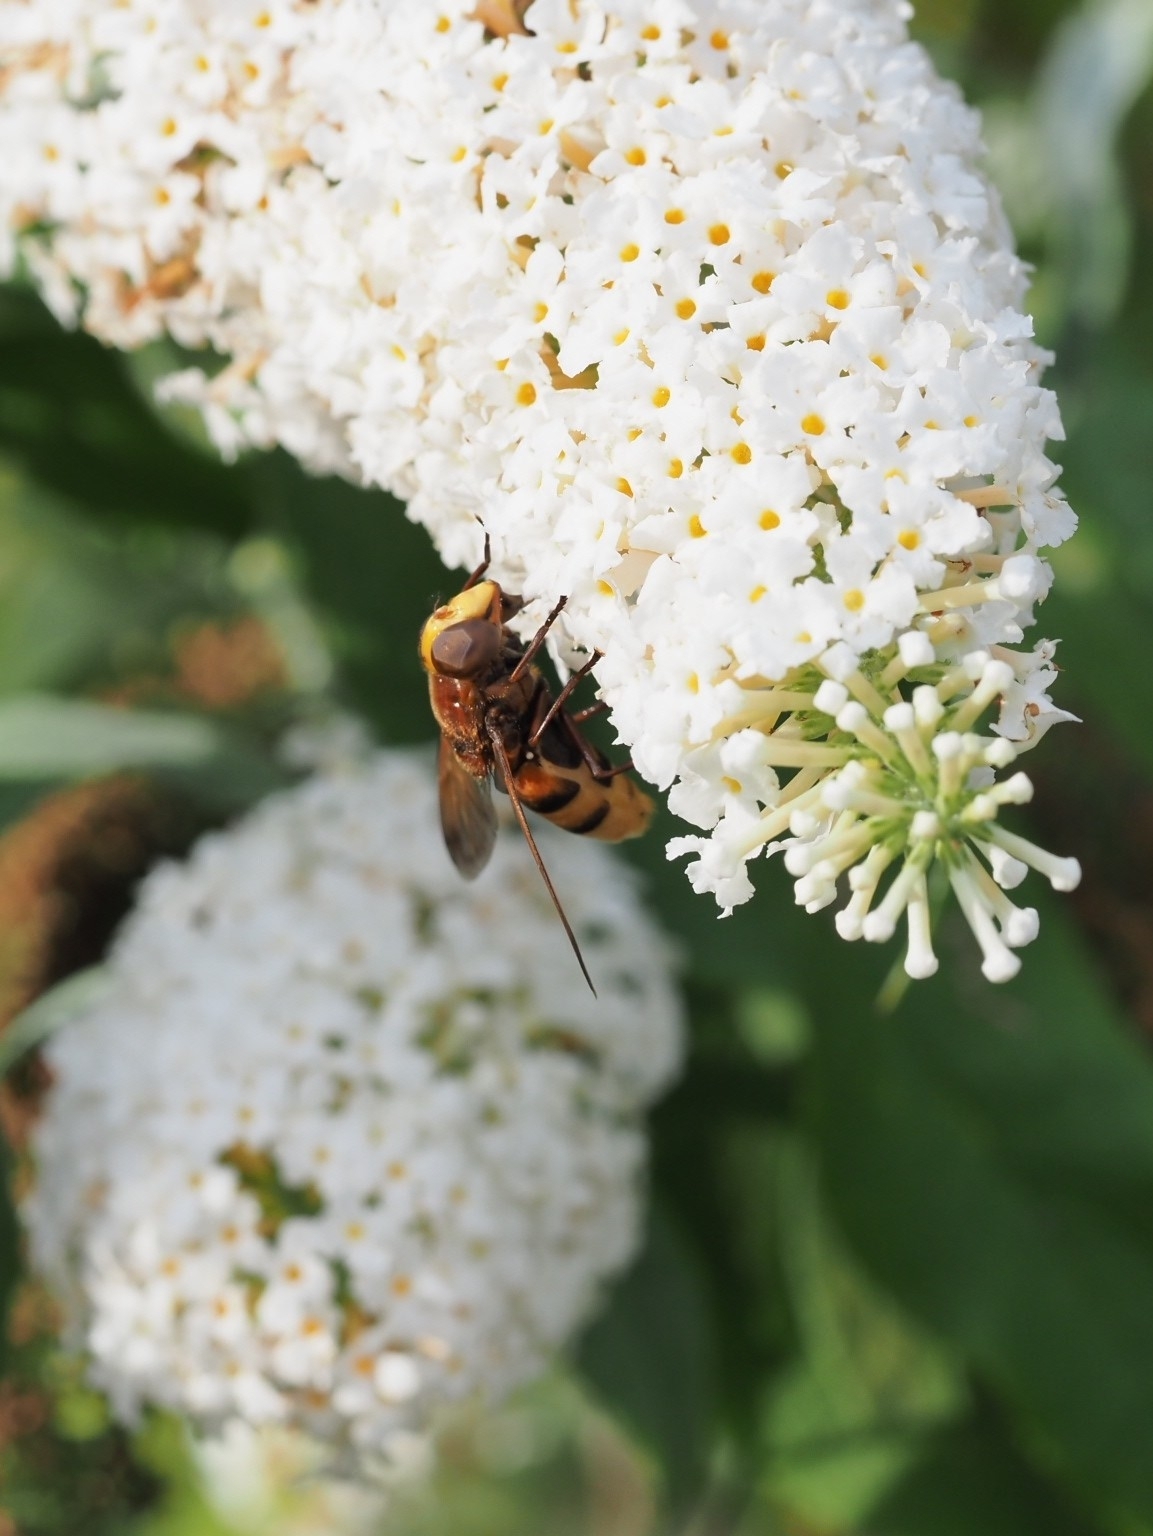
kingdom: Animalia
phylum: Arthropoda
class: Insecta
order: Diptera
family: Syrphidae
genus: Volucella
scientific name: Volucella zonaria
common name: Hornet hoverfly
